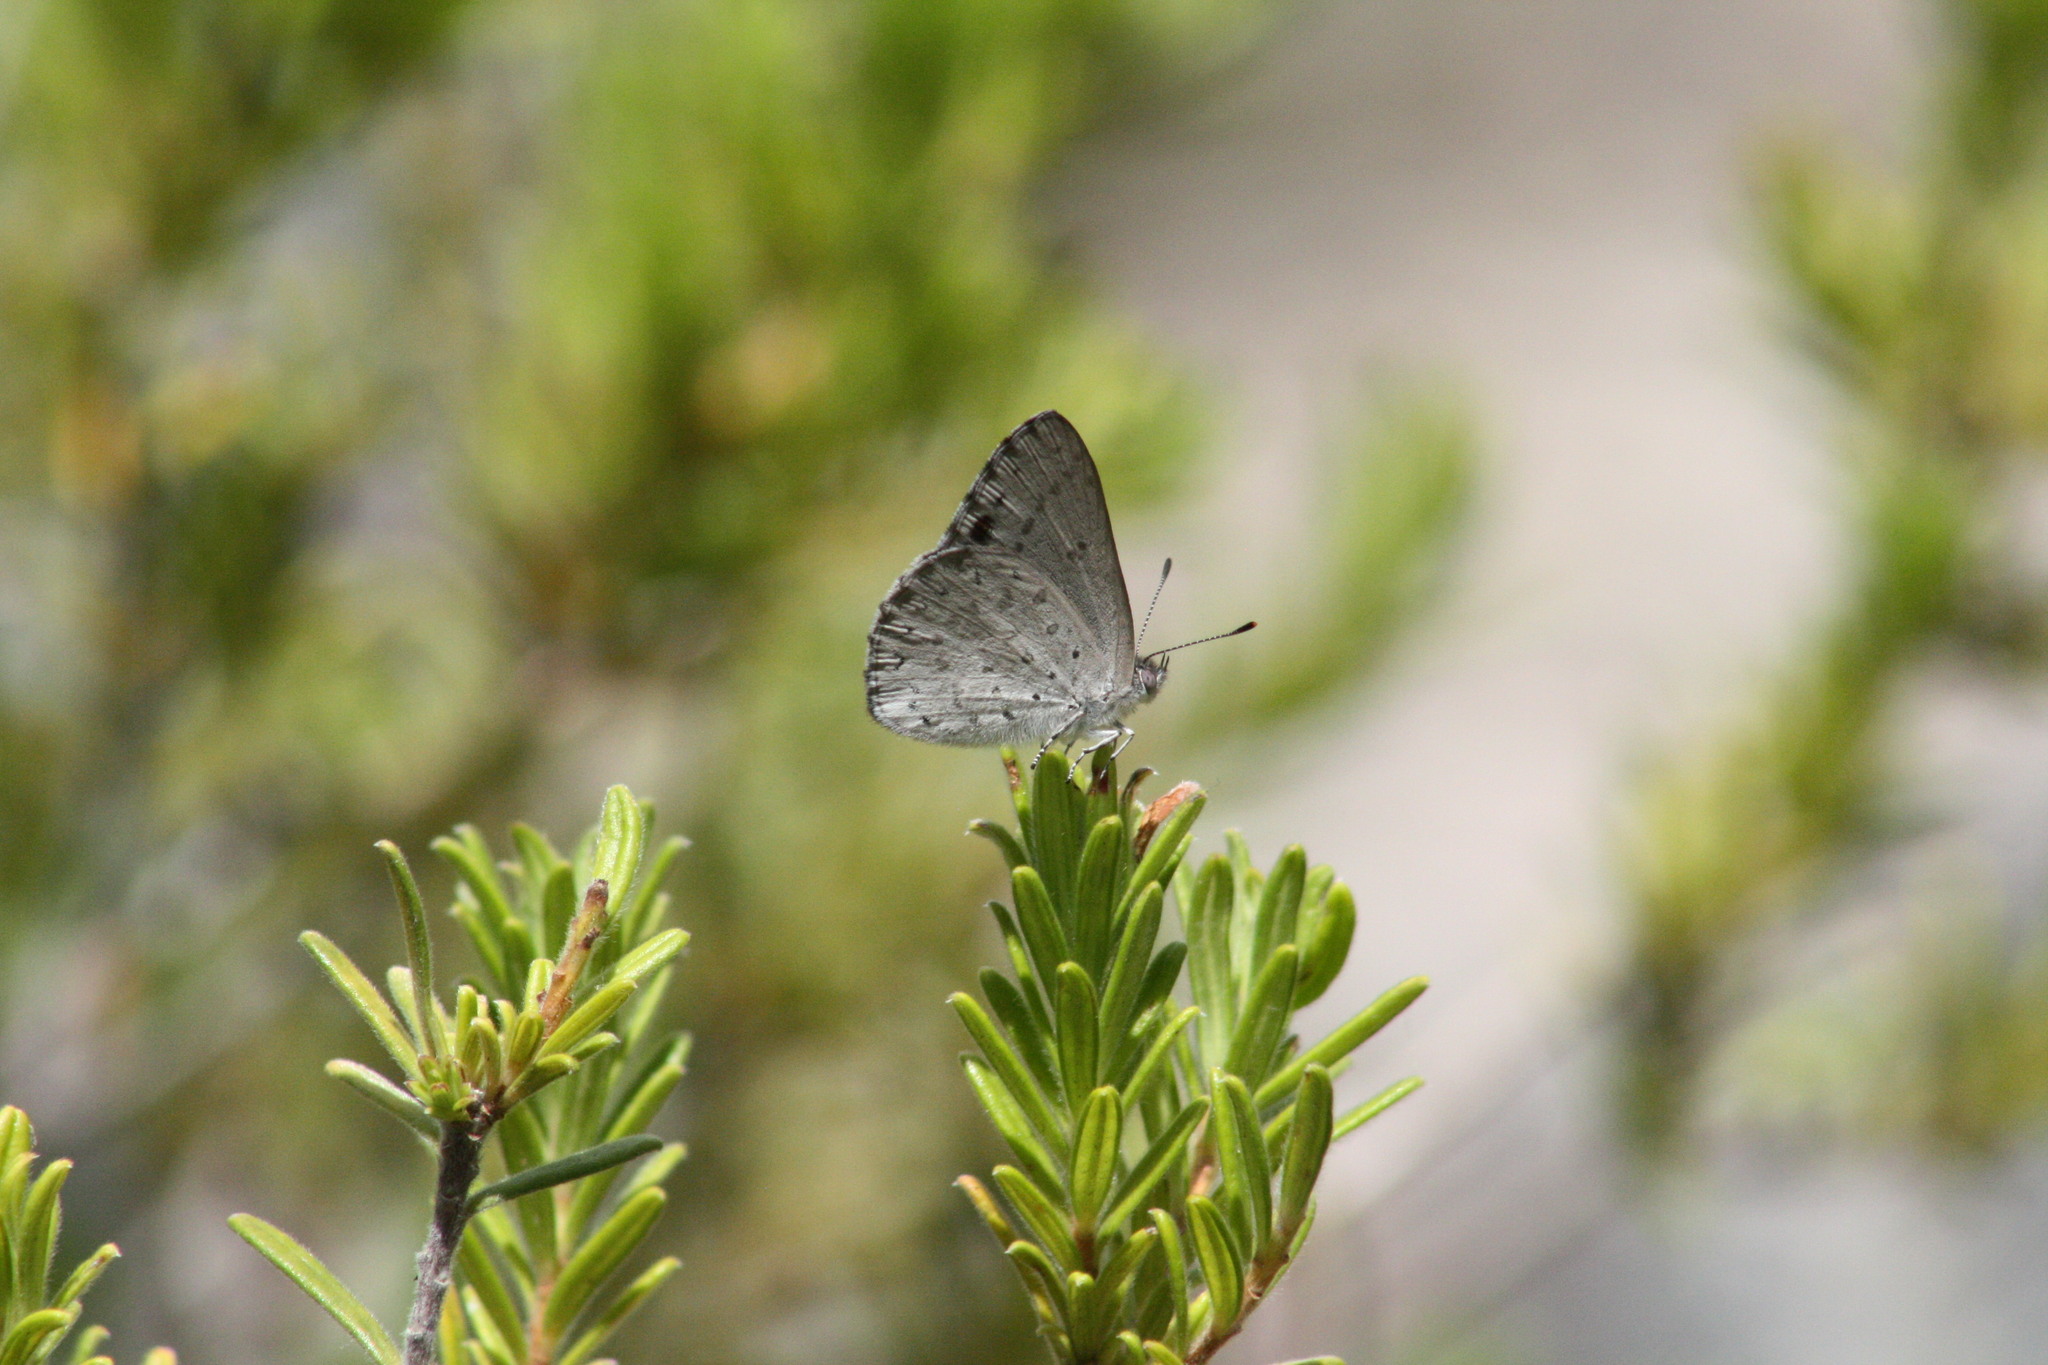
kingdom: Animalia
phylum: Arthropoda
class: Insecta
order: Lepidoptera
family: Lycaenidae
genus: Candalides
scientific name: Candalides
